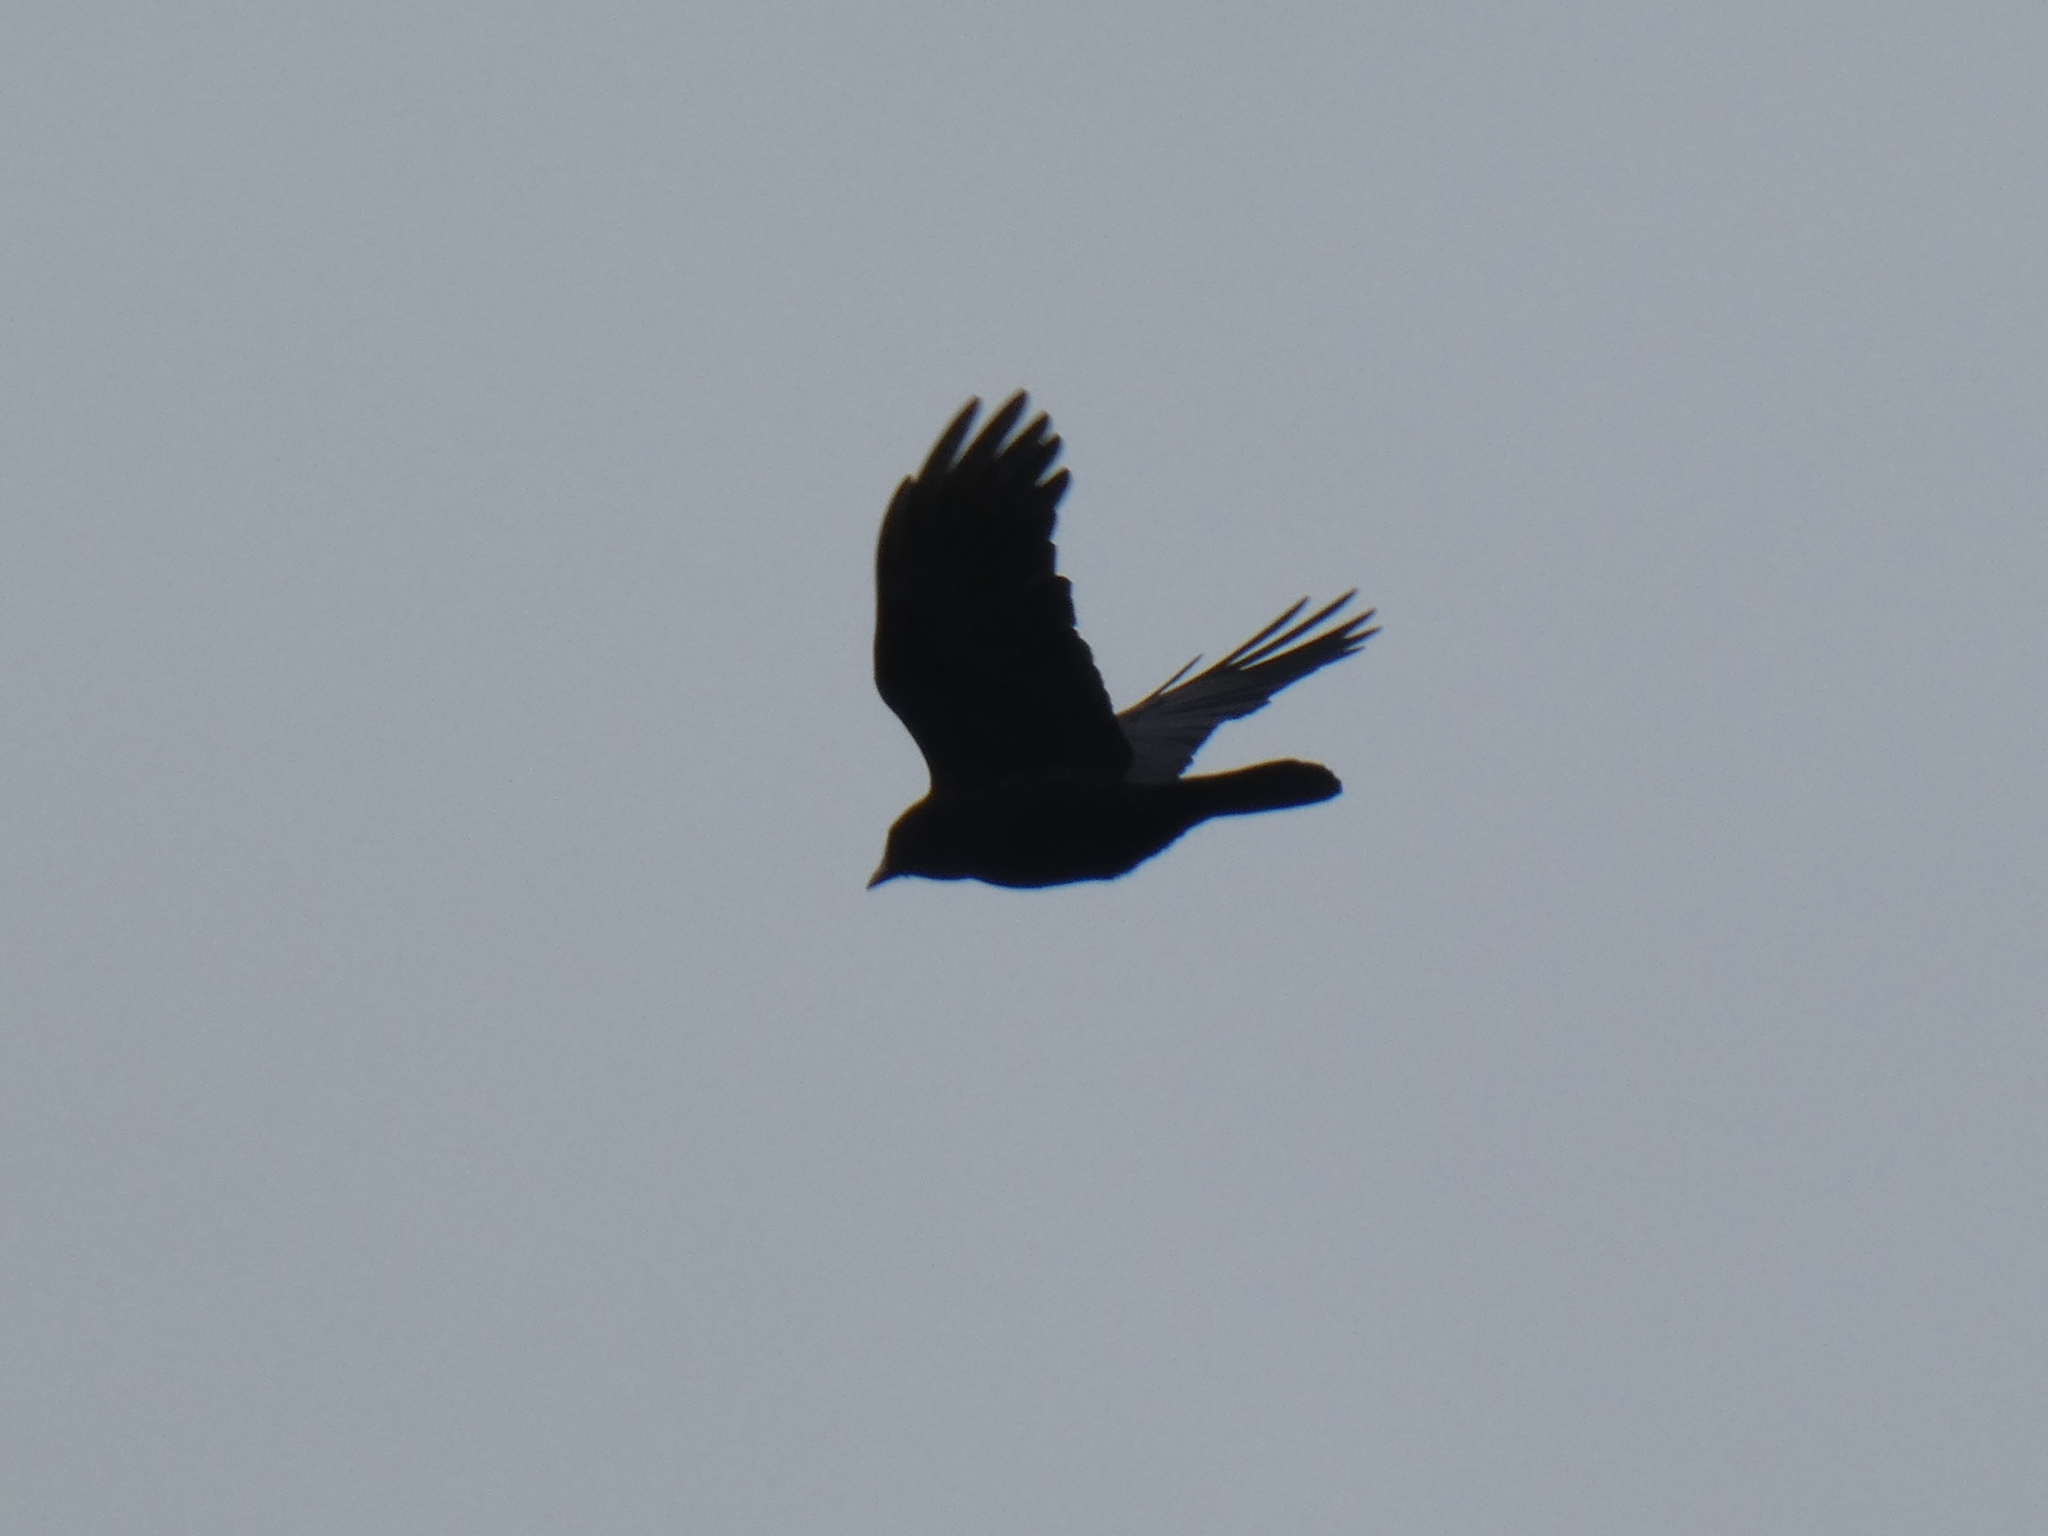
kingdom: Animalia
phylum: Chordata
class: Aves
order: Passeriformes
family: Corvidae
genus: Corvus
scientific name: Corvus brachyrhynchos
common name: American crow
